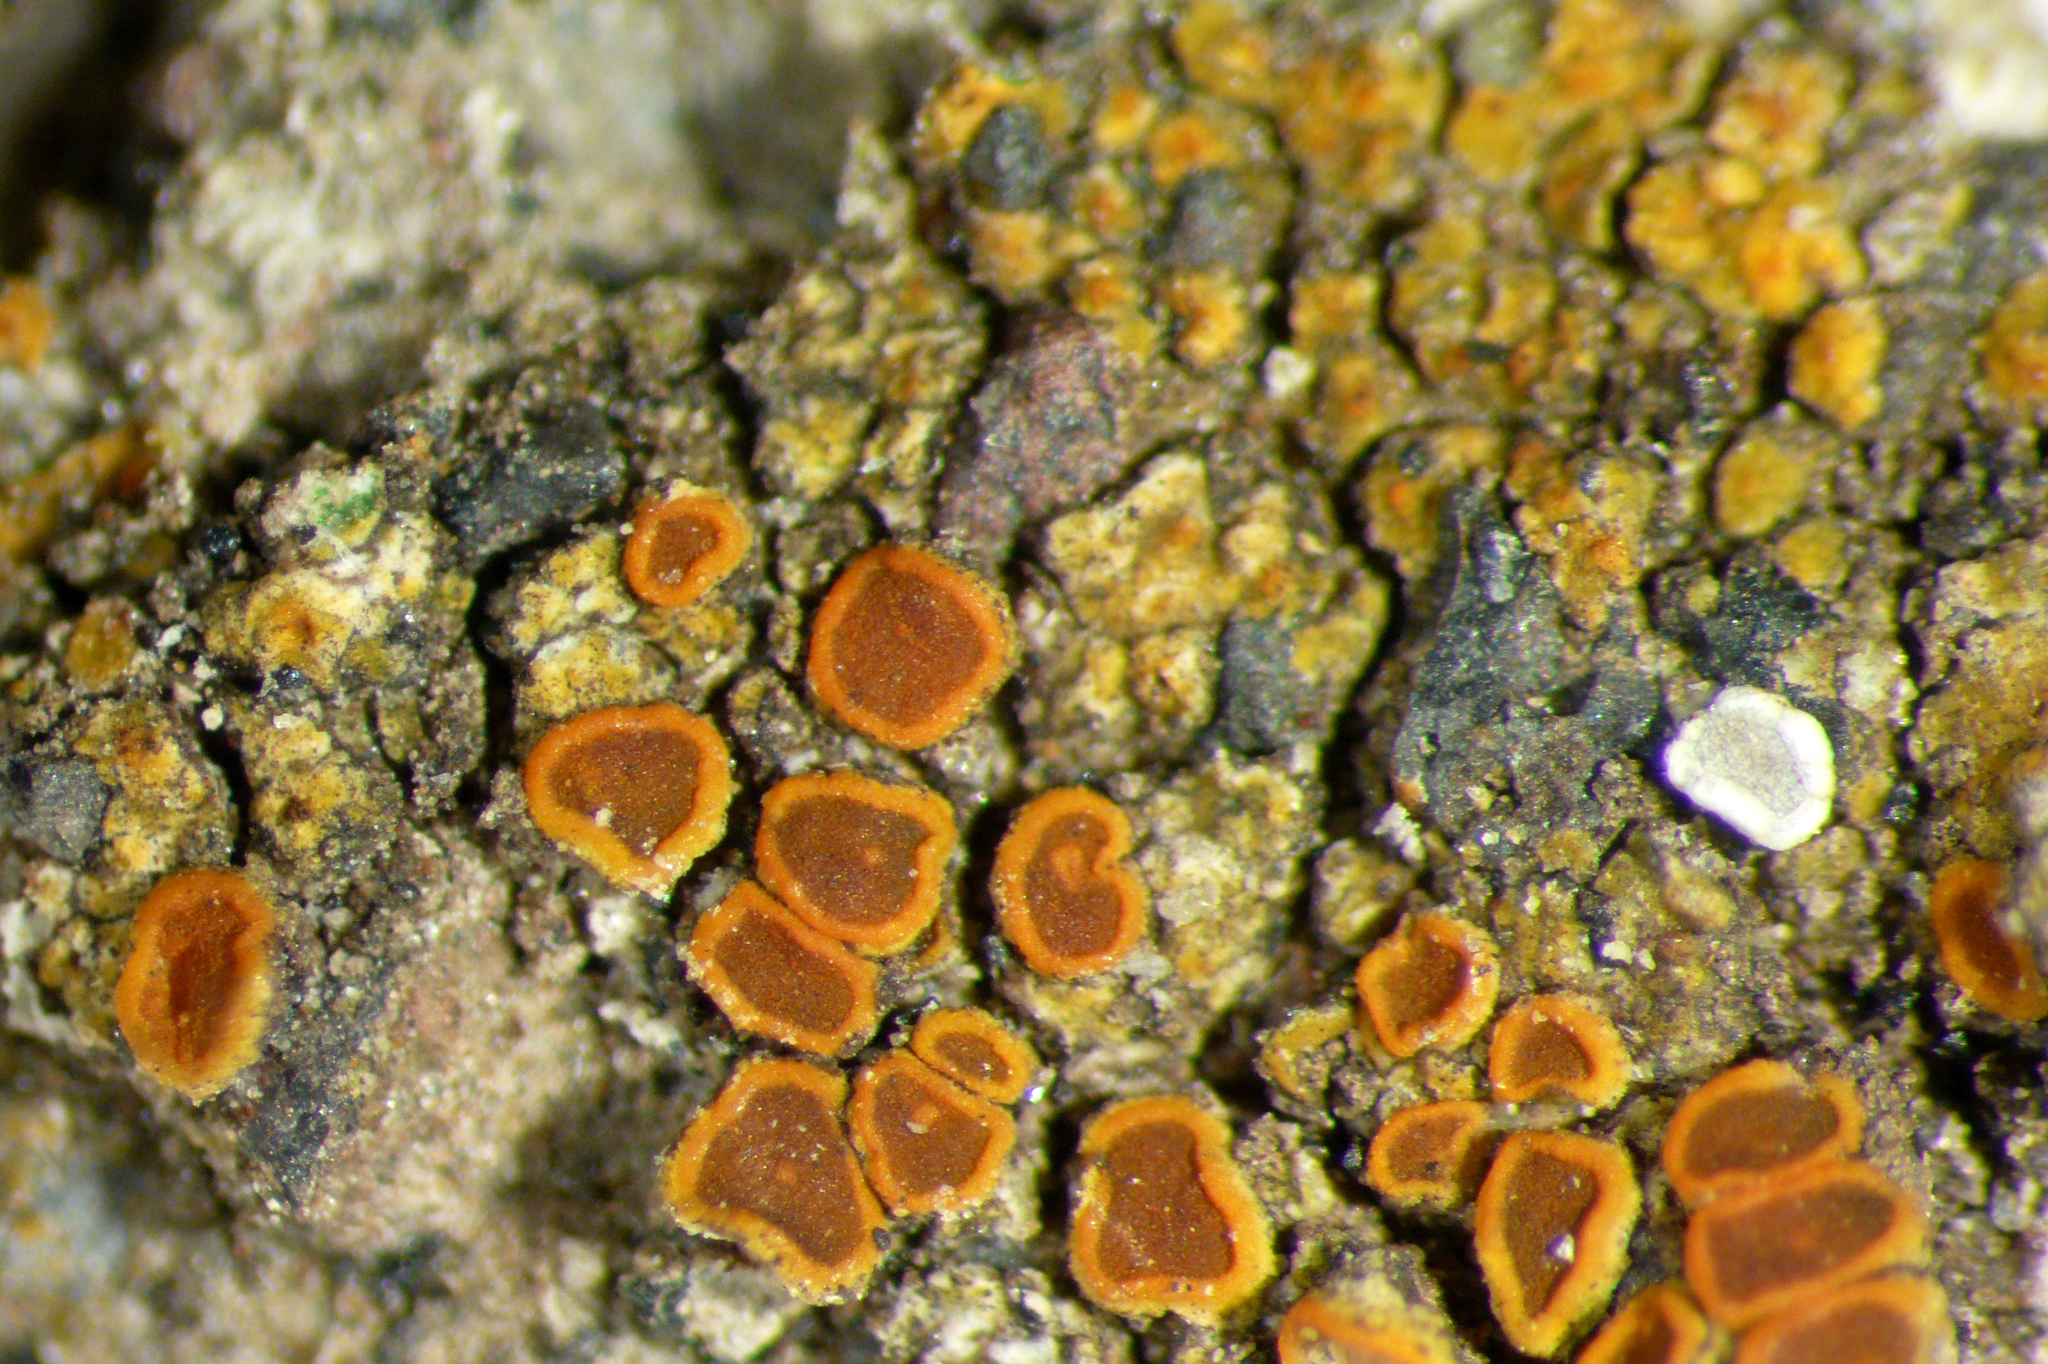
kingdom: Fungi
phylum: Ascomycota
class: Lecanoromycetes
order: Teloschistales
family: Teloschistaceae
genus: Caloplaca
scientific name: Caloplaca allanii
